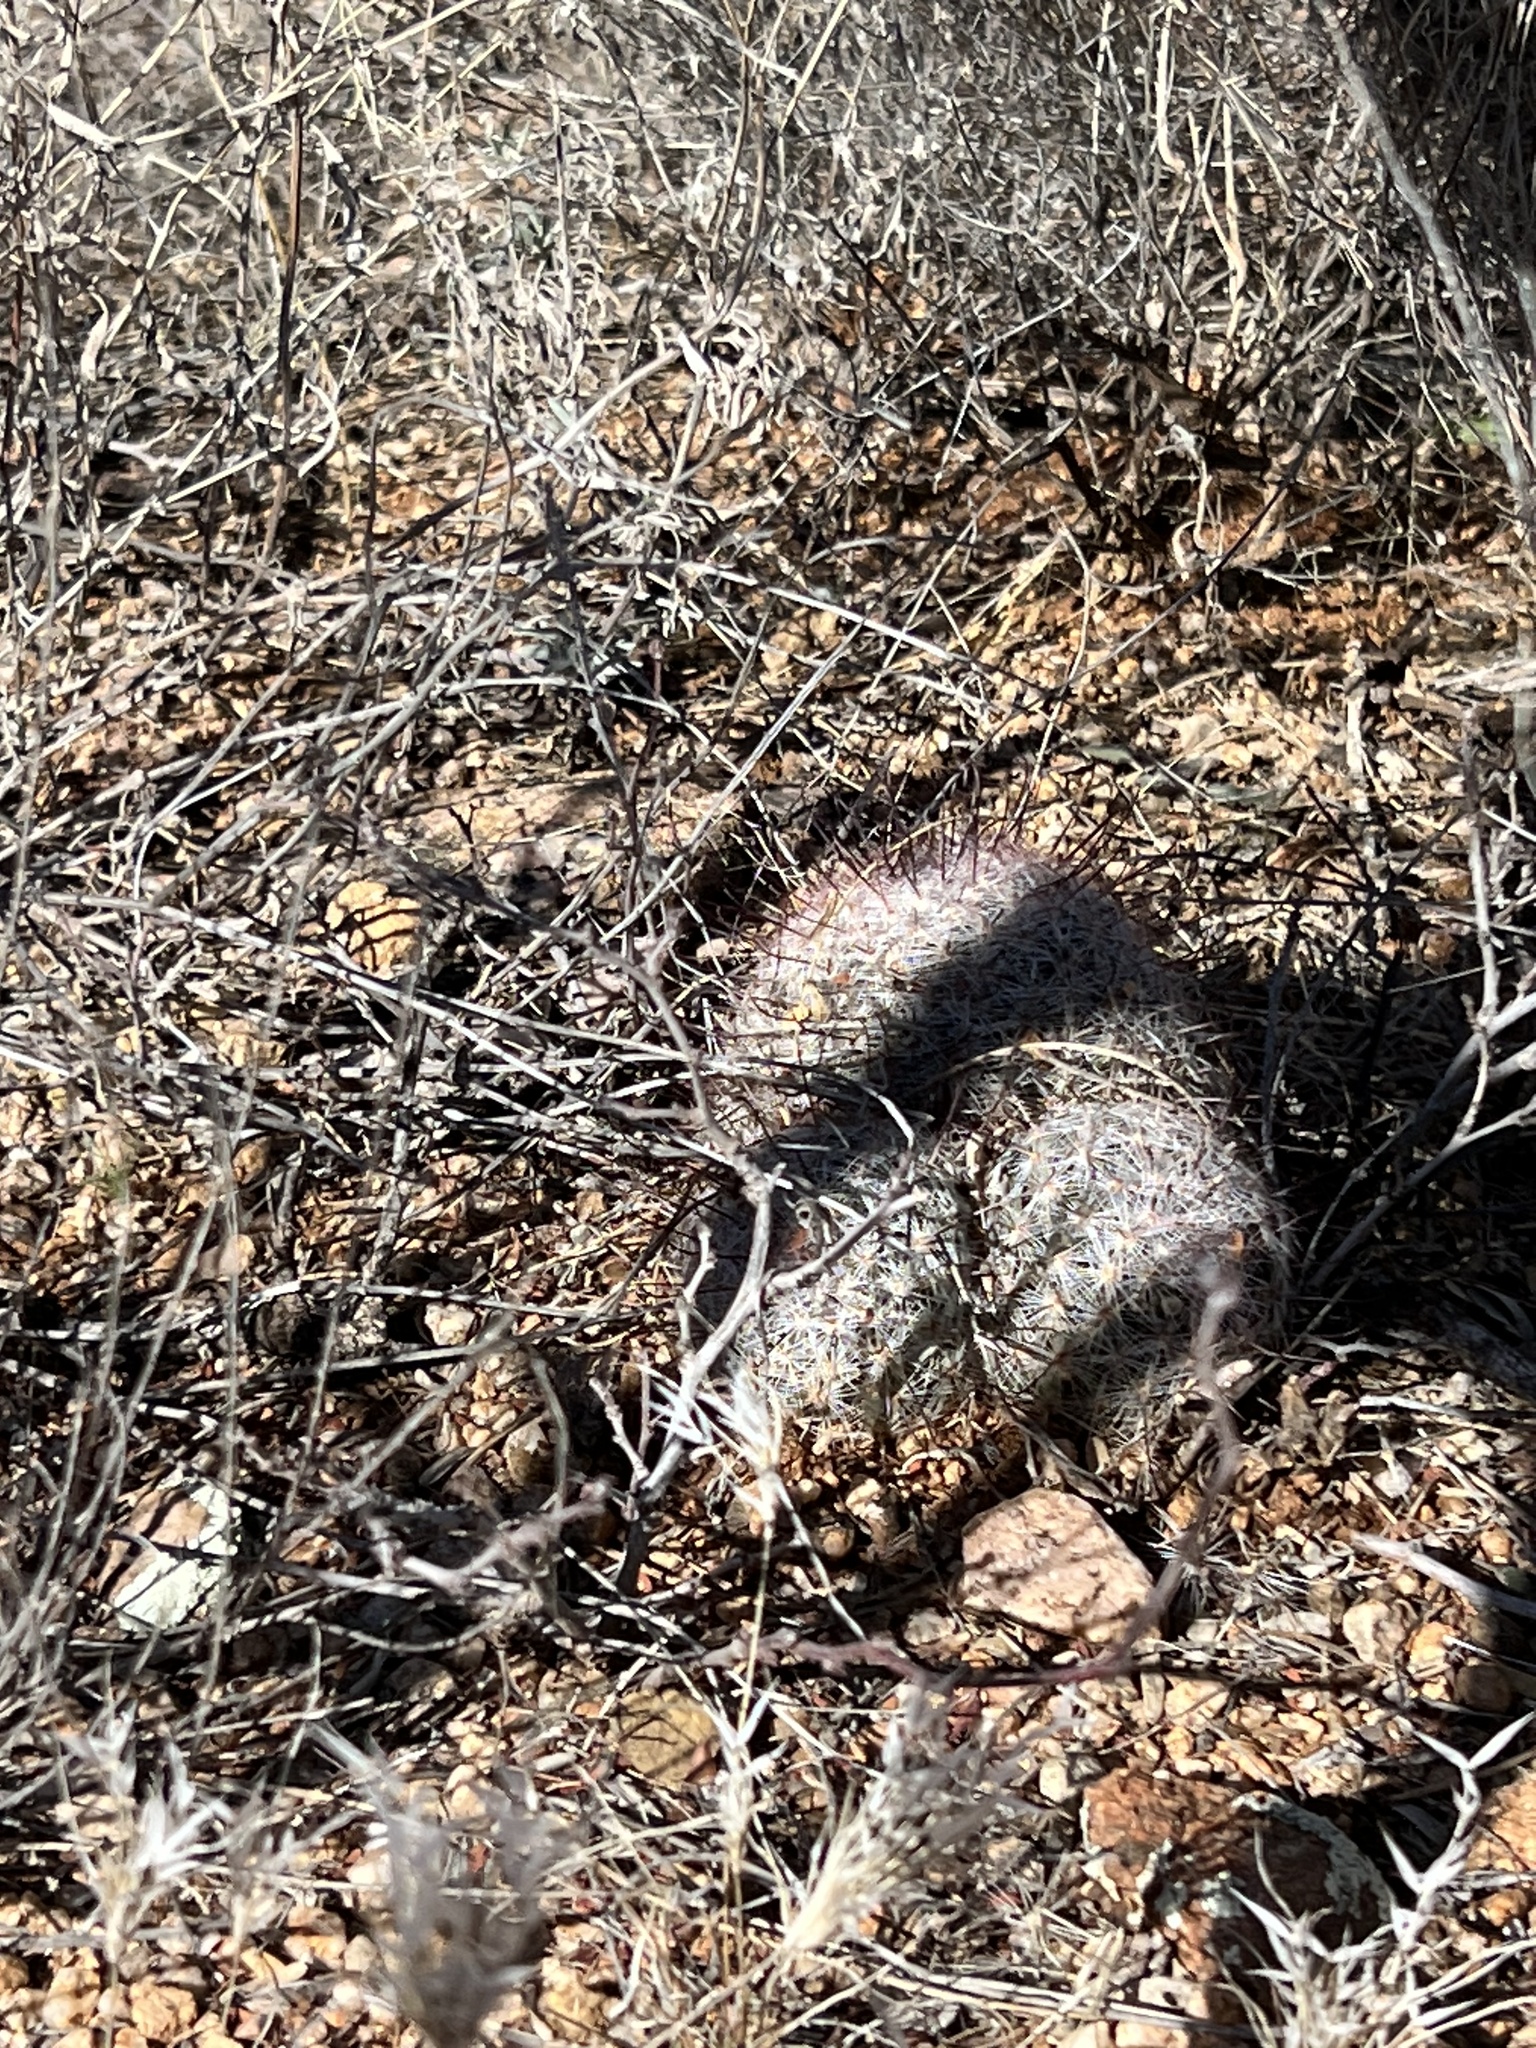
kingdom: Plantae
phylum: Tracheophyta
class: Magnoliopsida
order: Caryophyllales
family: Cactaceae
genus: Cochemiea
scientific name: Cochemiea grahamii
